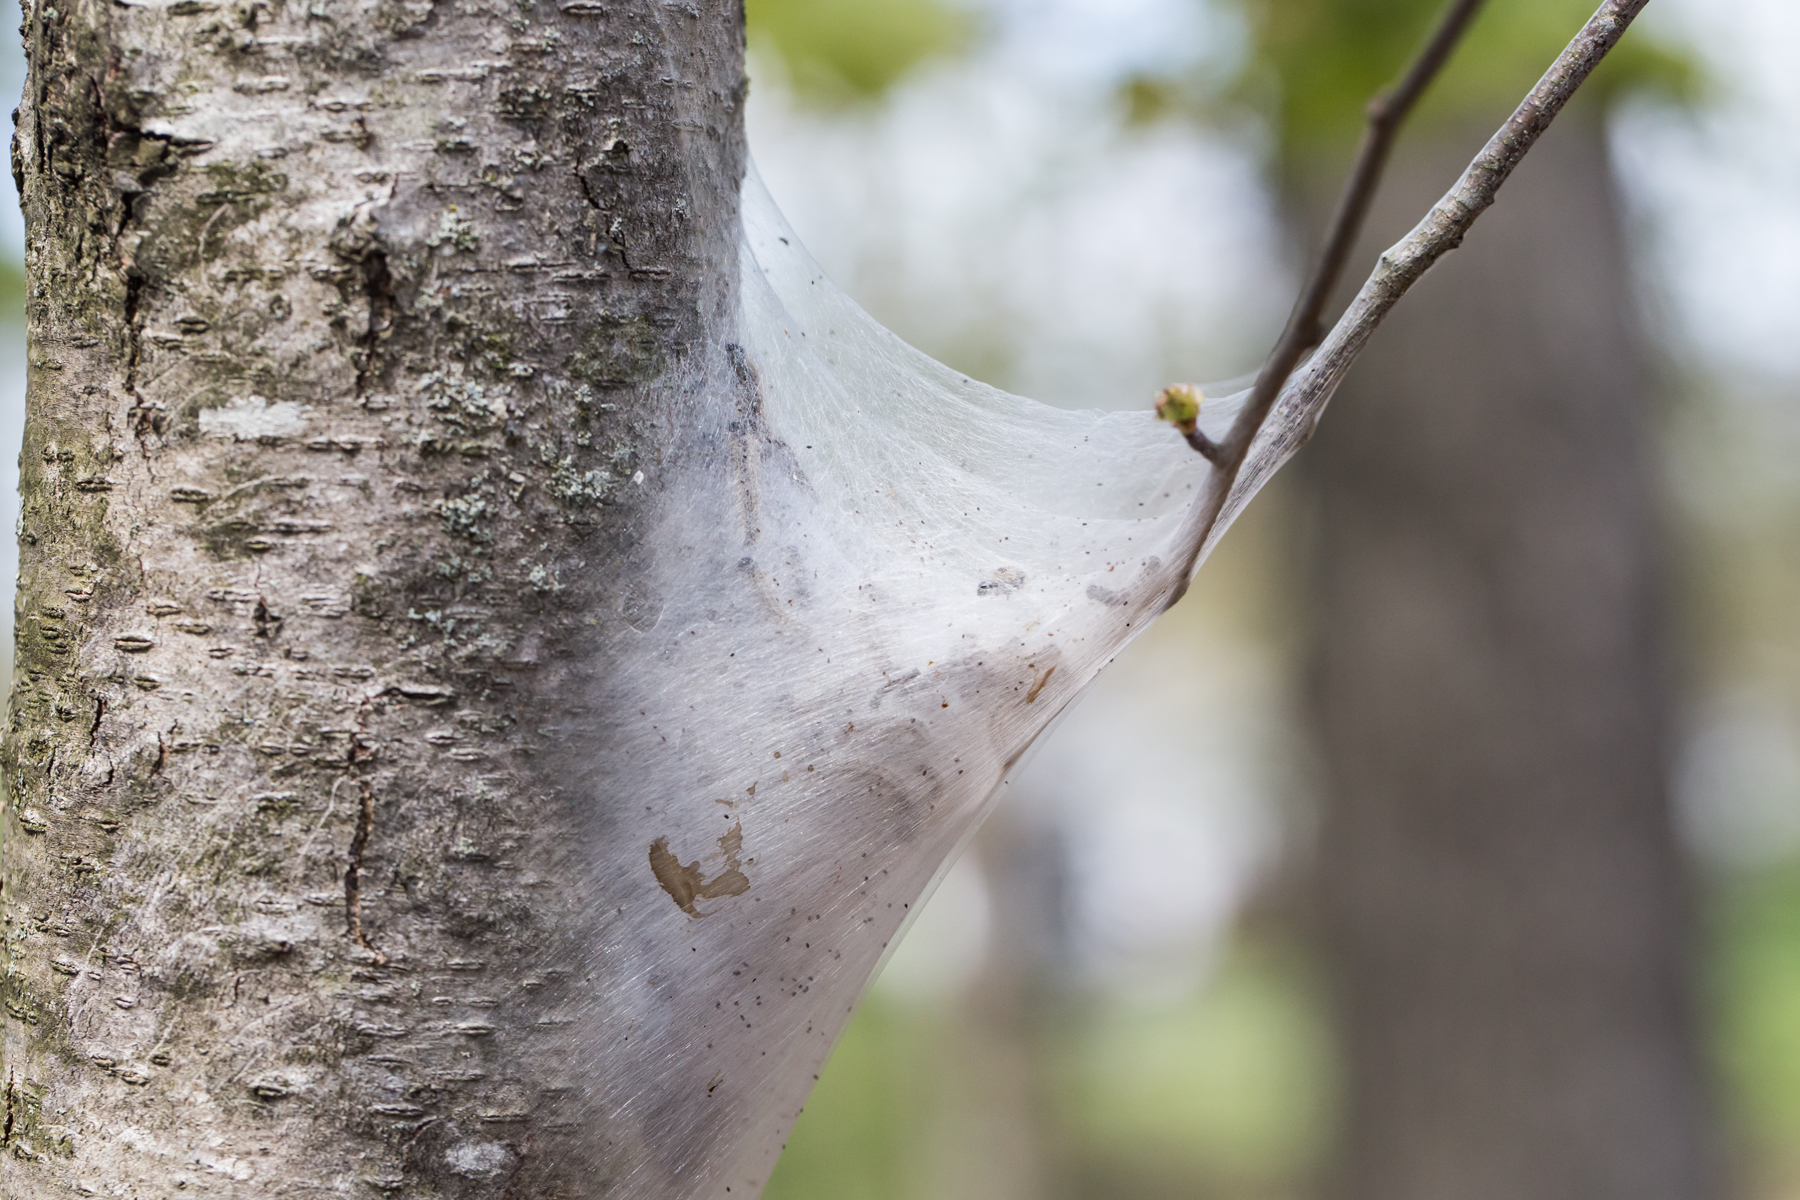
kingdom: Animalia
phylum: Arthropoda
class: Insecta
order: Lepidoptera
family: Lasiocampidae
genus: Malacosoma
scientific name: Malacosoma americana
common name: Eastern tent caterpillar moth
